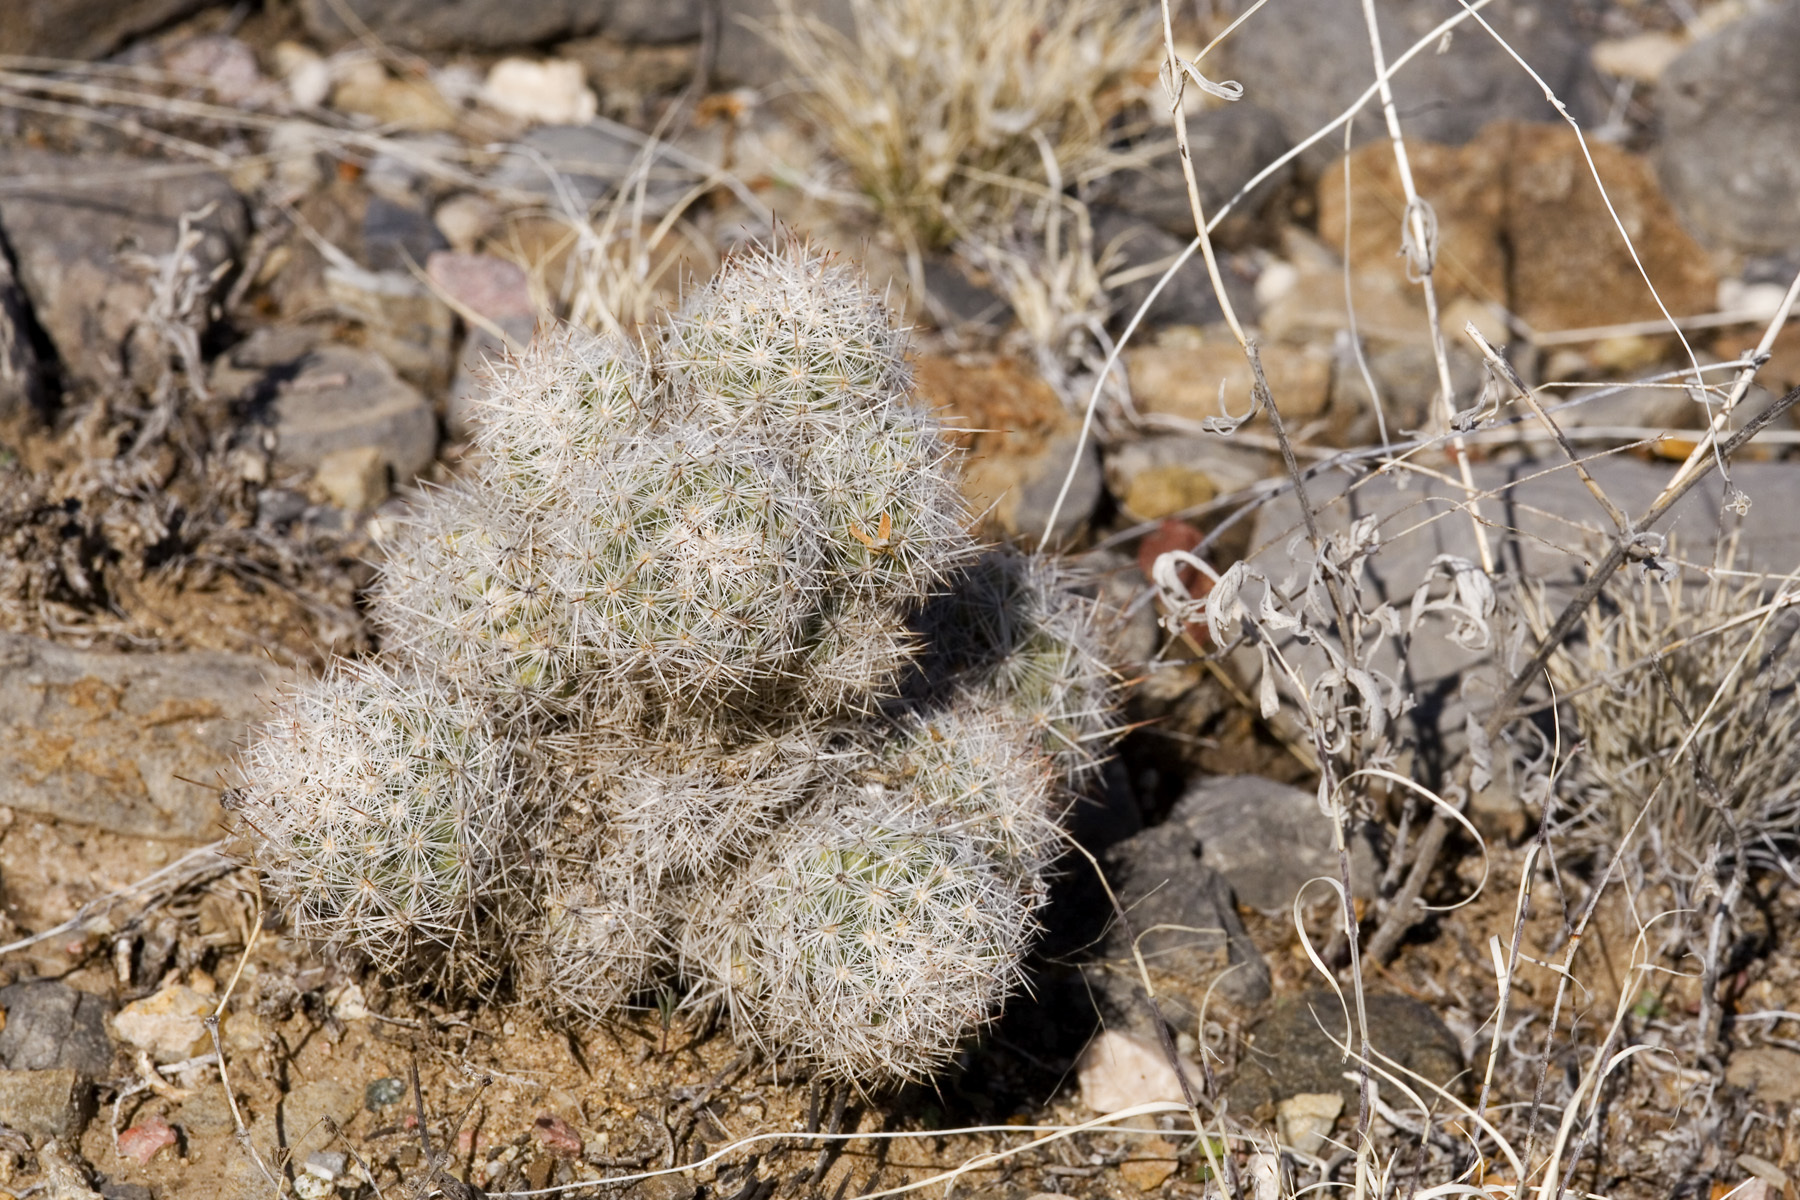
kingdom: Plantae
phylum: Tracheophyta
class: Magnoliopsida
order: Caryophyllales
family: Cactaceae
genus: Pelecyphora
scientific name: Pelecyphora sneedii
